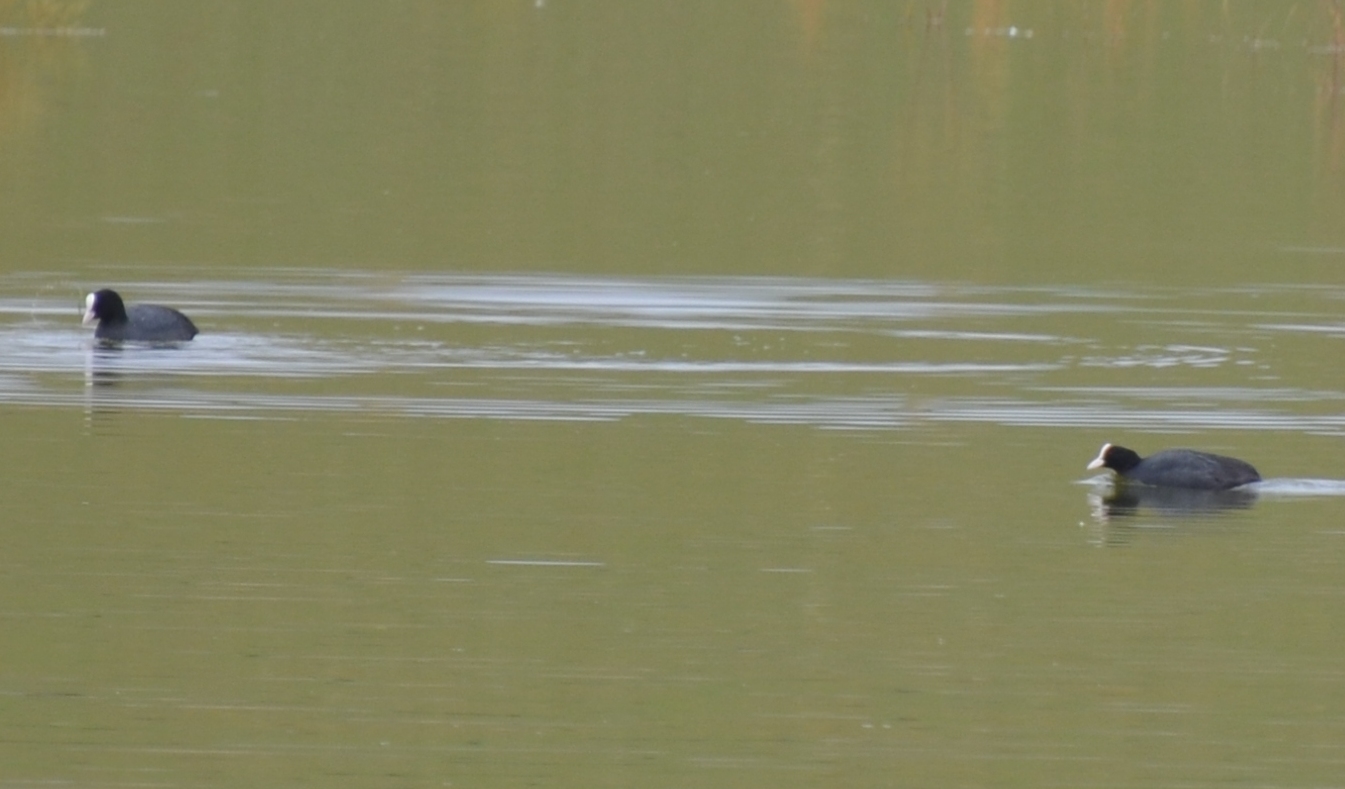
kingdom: Animalia
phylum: Chordata
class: Aves
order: Gruiformes
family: Rallidae
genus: Fulica
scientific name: Fulica atra
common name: Eurasian coot
